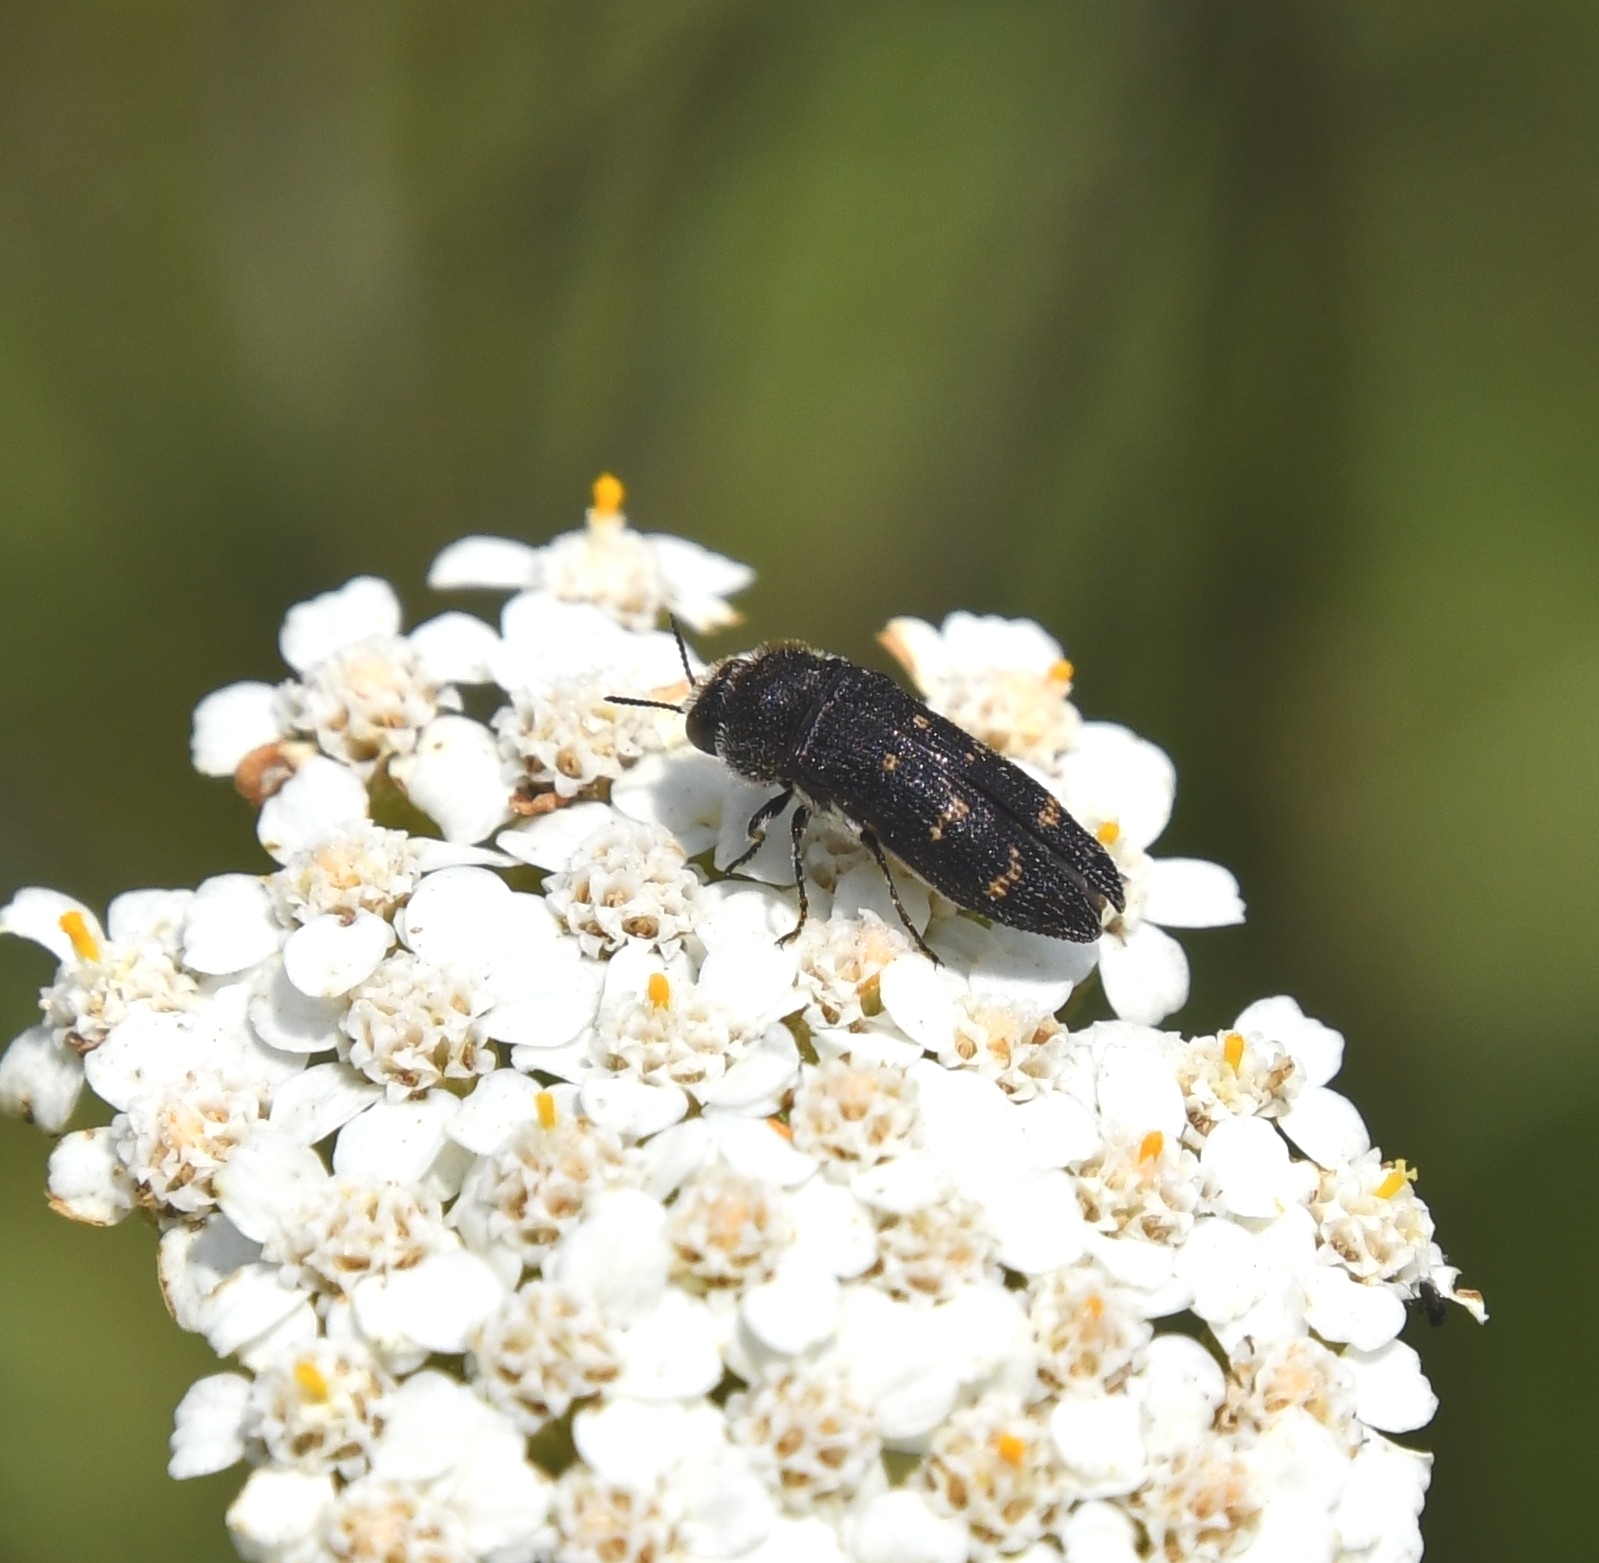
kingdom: Animalia
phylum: Arthropoda
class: Insecta
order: Coleoptera
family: Buprestidae
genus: Acmaeoderella
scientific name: Acmaeoderella flavofasciata
